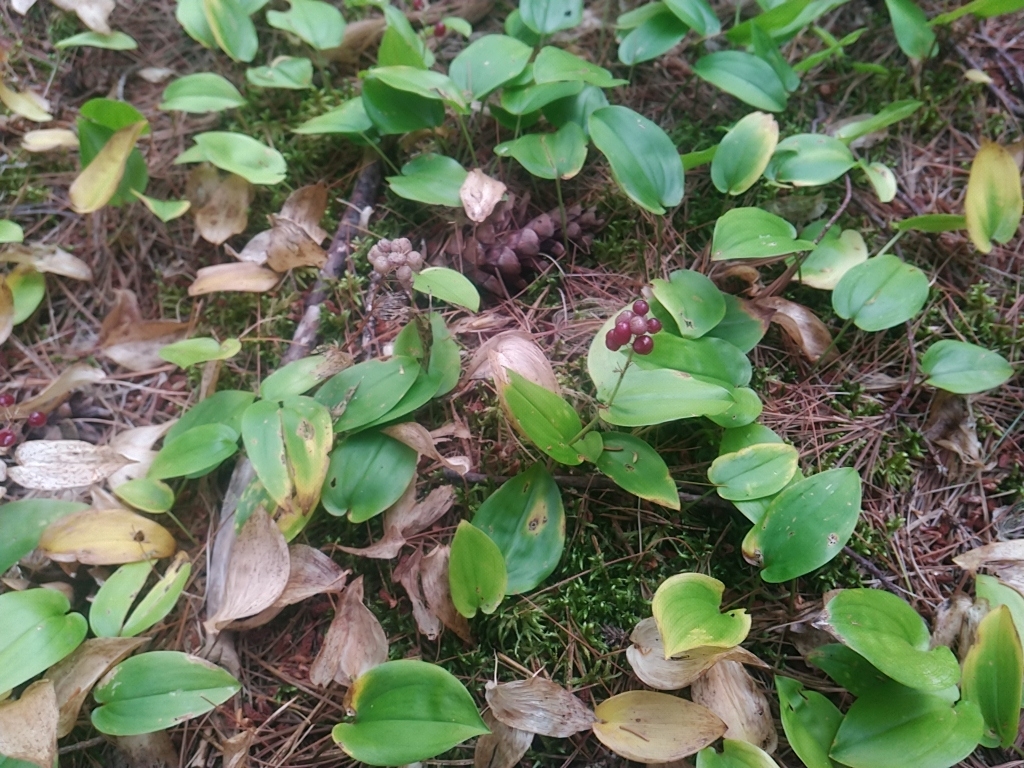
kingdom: Plantae
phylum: Tracheophyta
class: Liliopsida
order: Asparagales
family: Asparagaceae
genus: Maianthemum
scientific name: Maianthemum canadense
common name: False lily-of-the-valley
